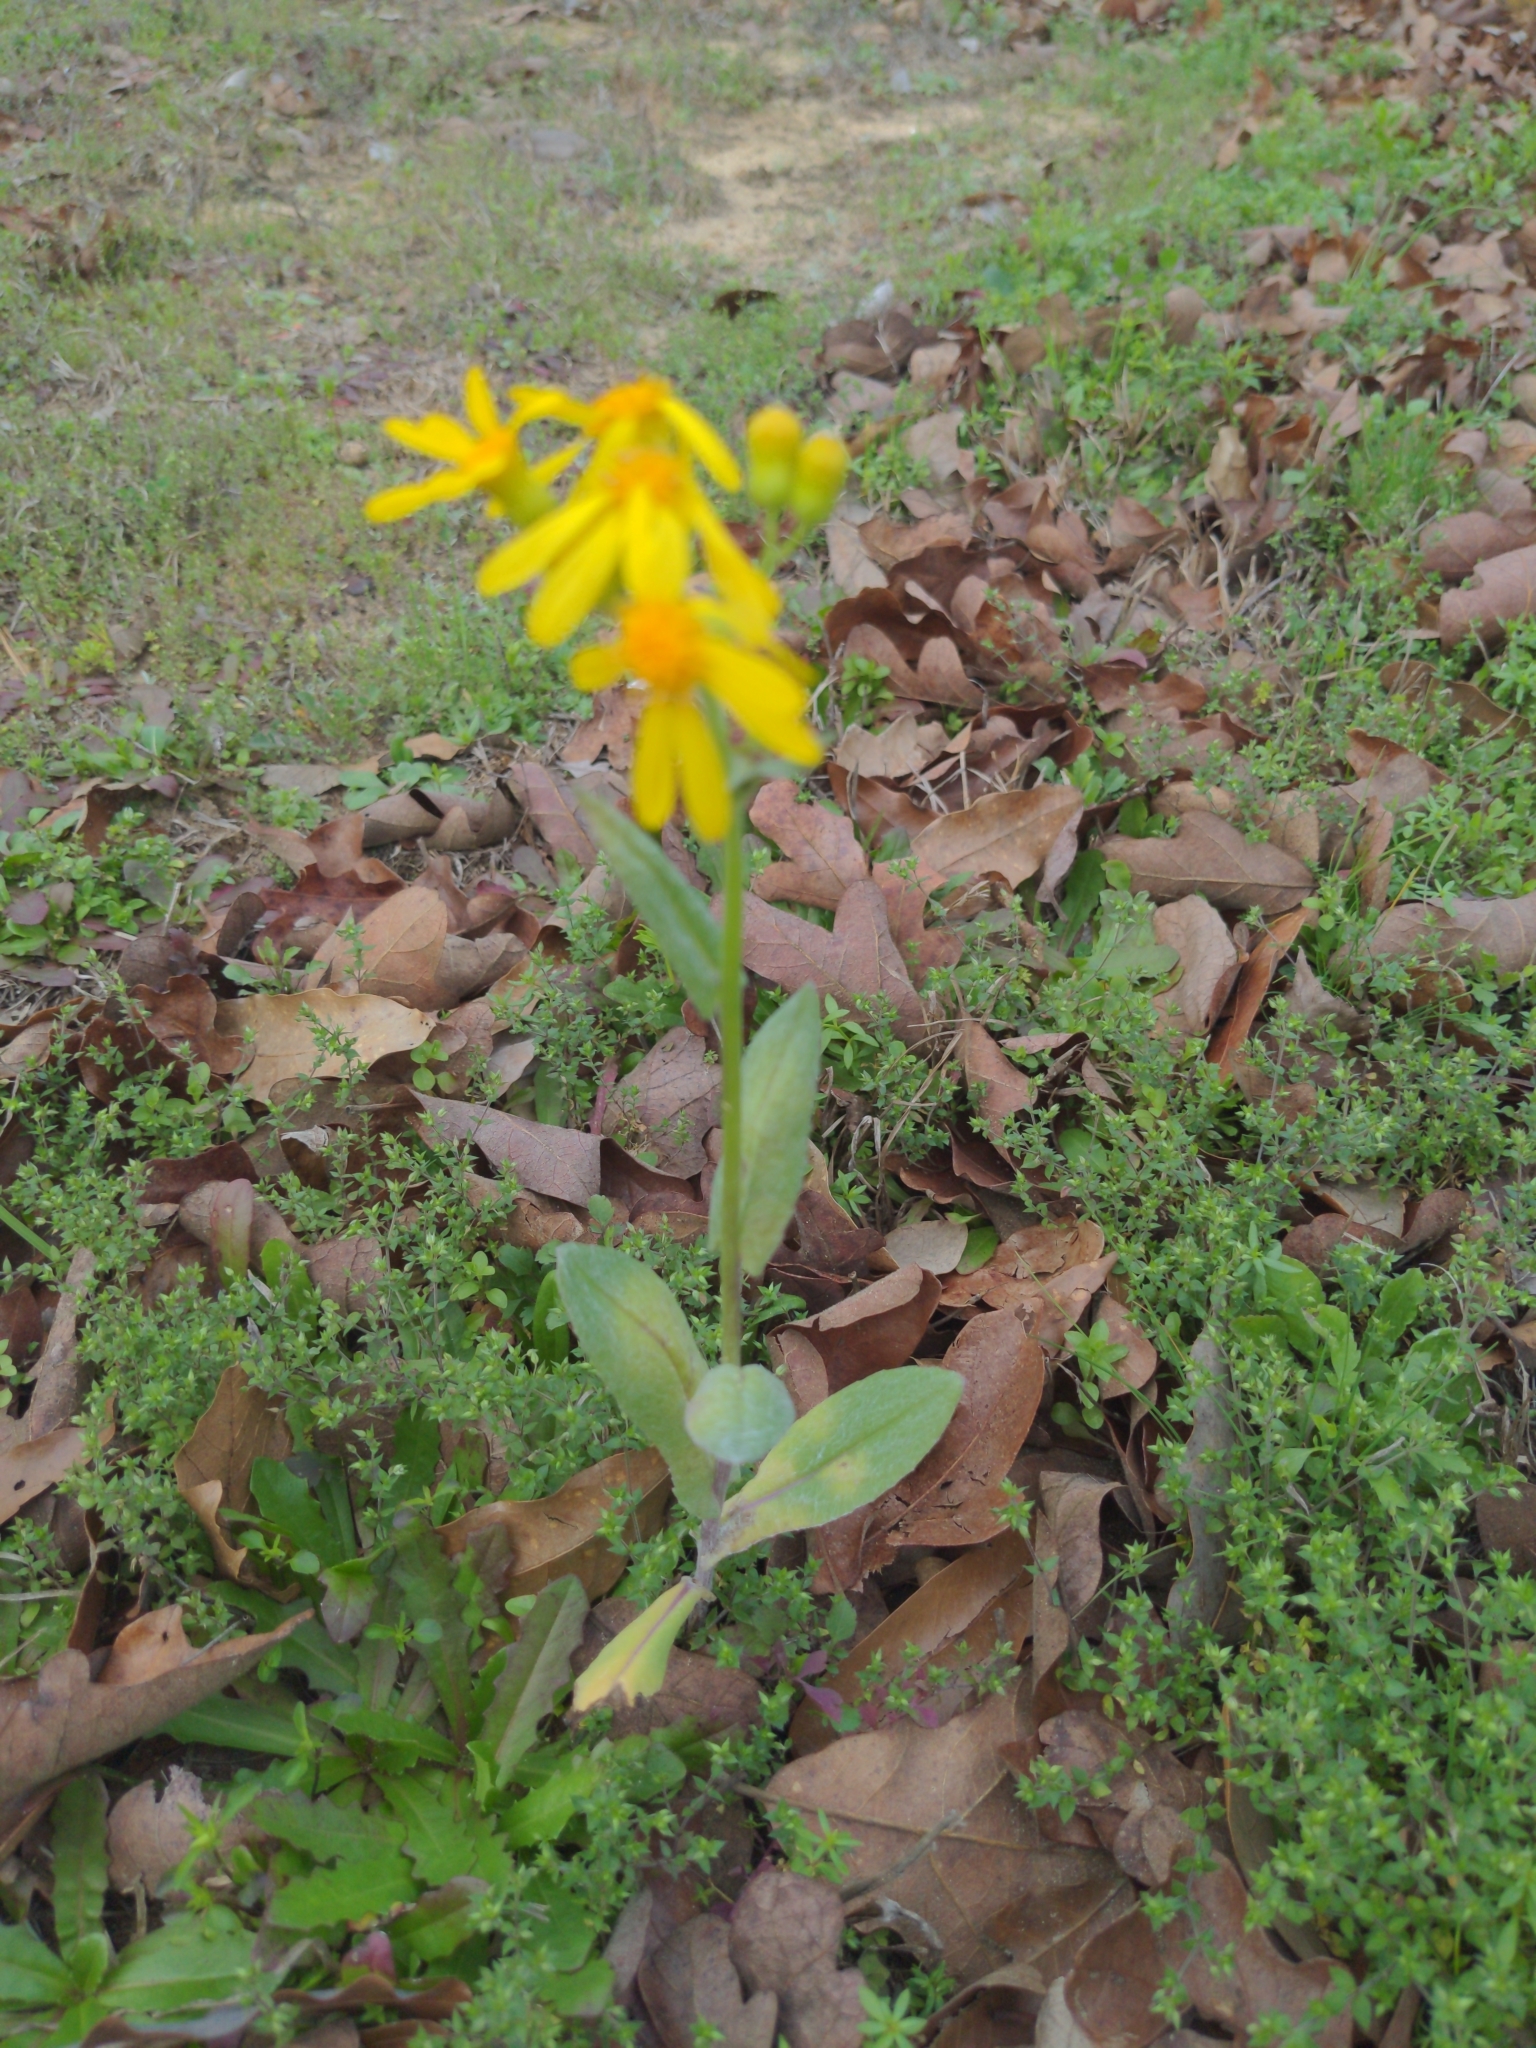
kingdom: Plantae
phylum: Tracheophyta
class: Magnoliopsida
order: Asterales
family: Asteraceae
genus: Senecio
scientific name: Senecio ampullaceus
